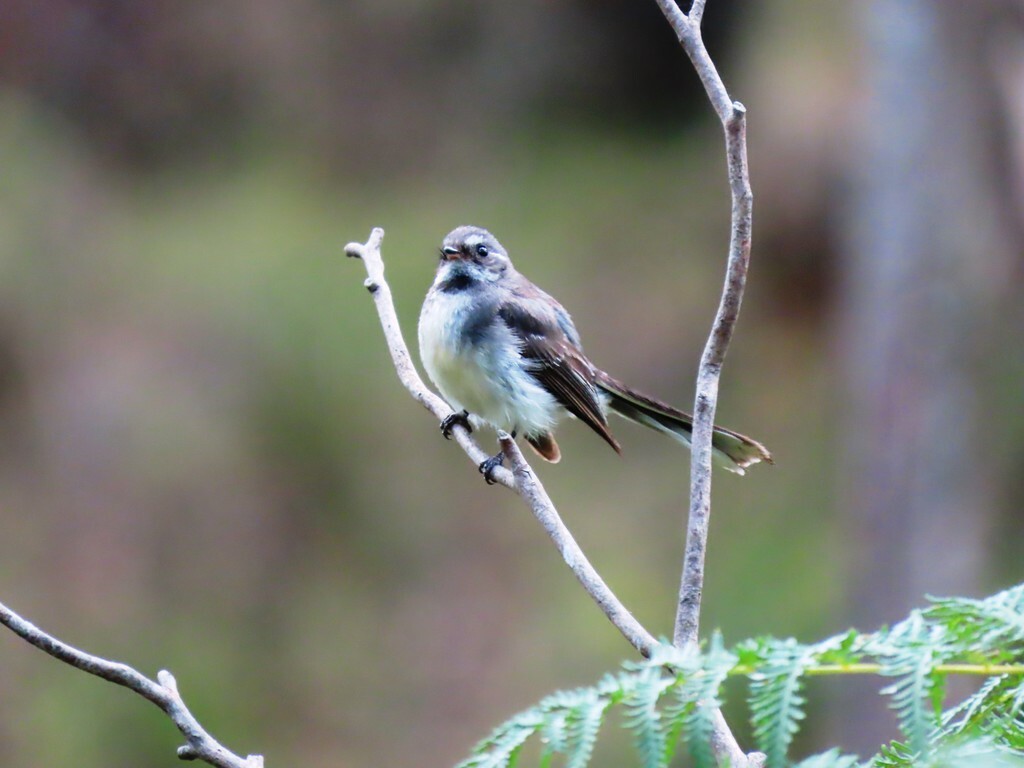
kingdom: Animalia
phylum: Chordata
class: Aves
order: Passeriformes
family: Rhipiduridae
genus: Rhipidura
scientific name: Rhipidura albiscapa
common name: Grey fantail
